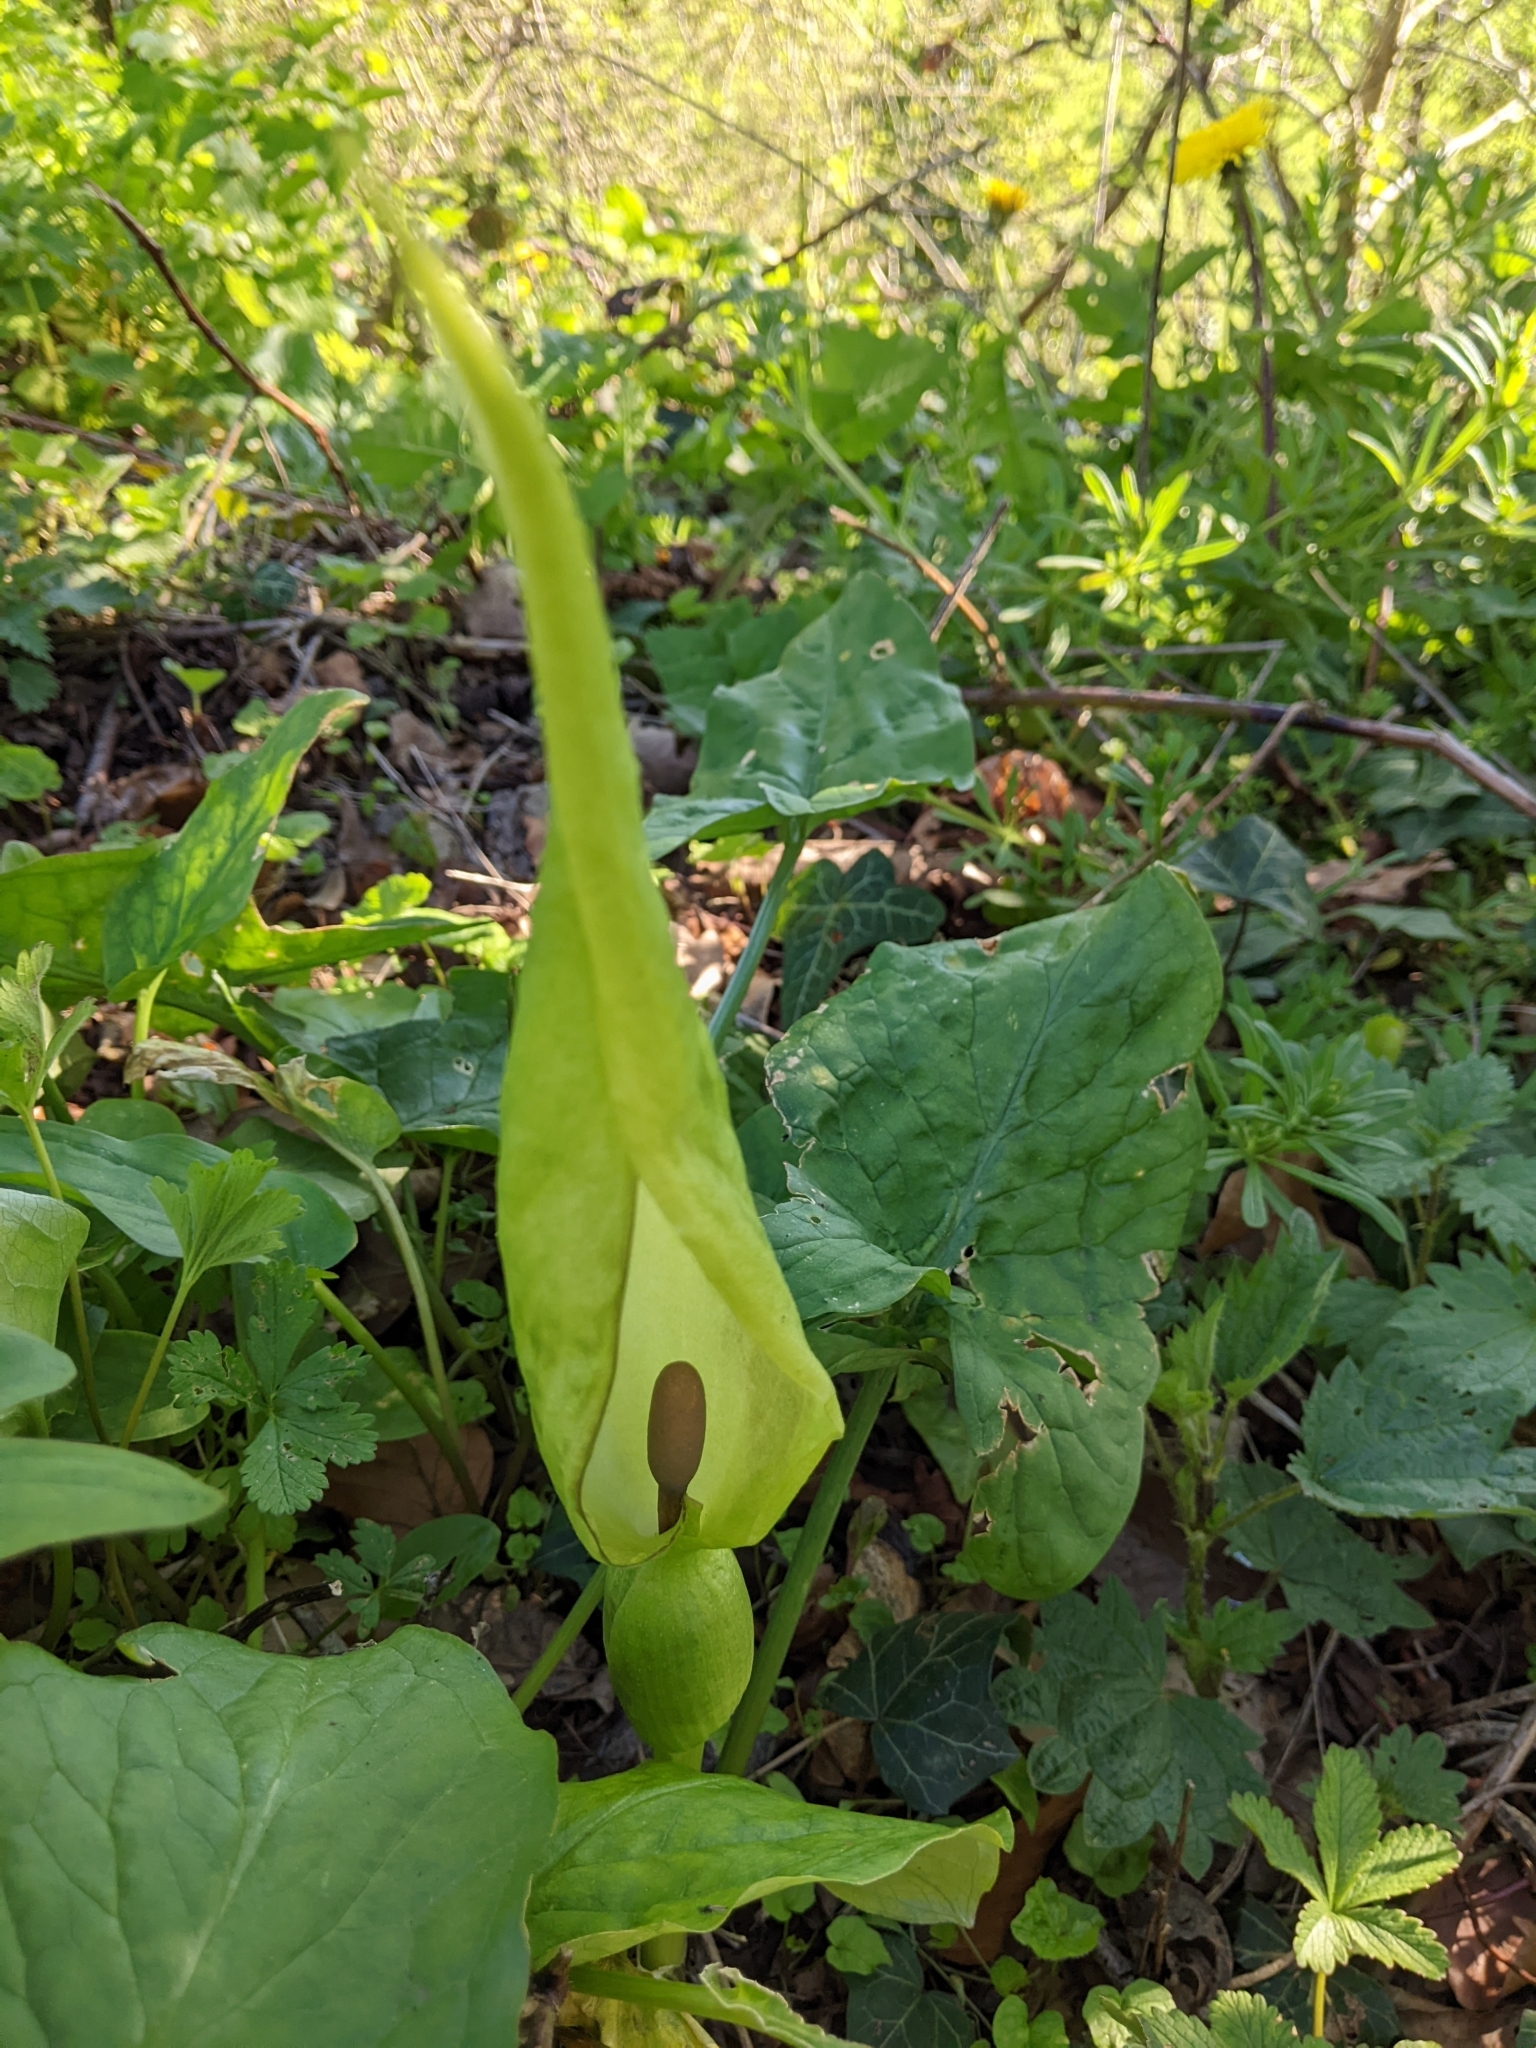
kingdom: Plantae
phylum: Tracheophyta
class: Liliopsida
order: Alismatales
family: Araceae
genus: Arum
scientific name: Arum maculatum
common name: Lords-and-ladies
